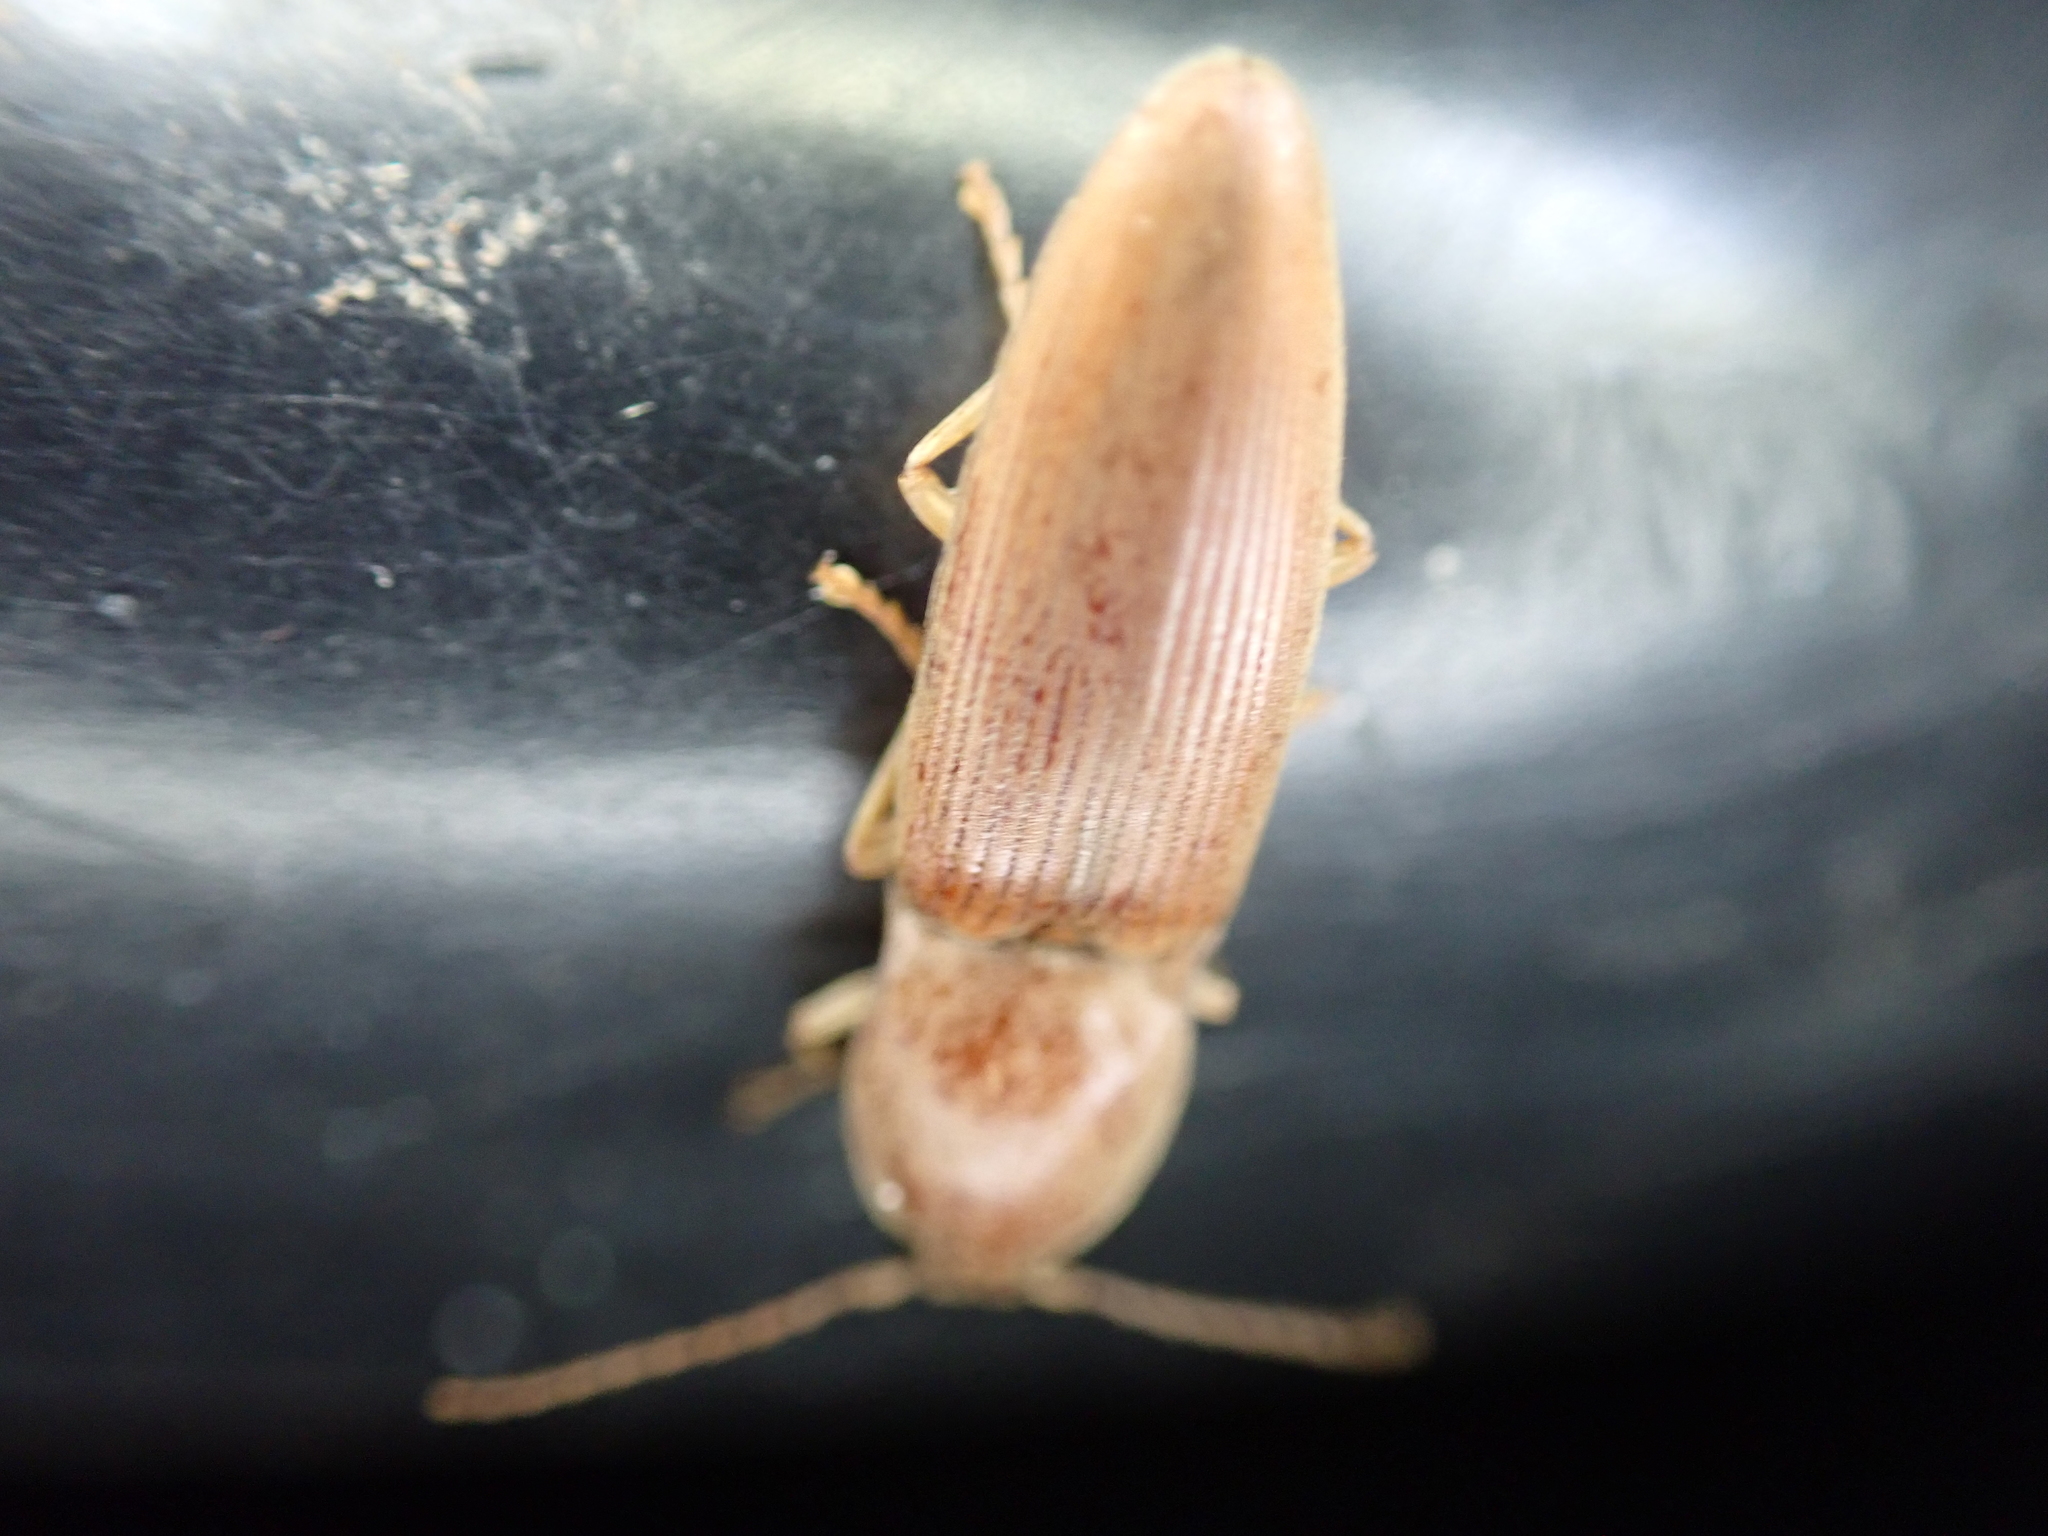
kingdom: Animalia
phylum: Arthropoda
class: Insecta
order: Coleoptera
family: Elateridae
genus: Monocrepidius
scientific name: Monocrepidius lividus
